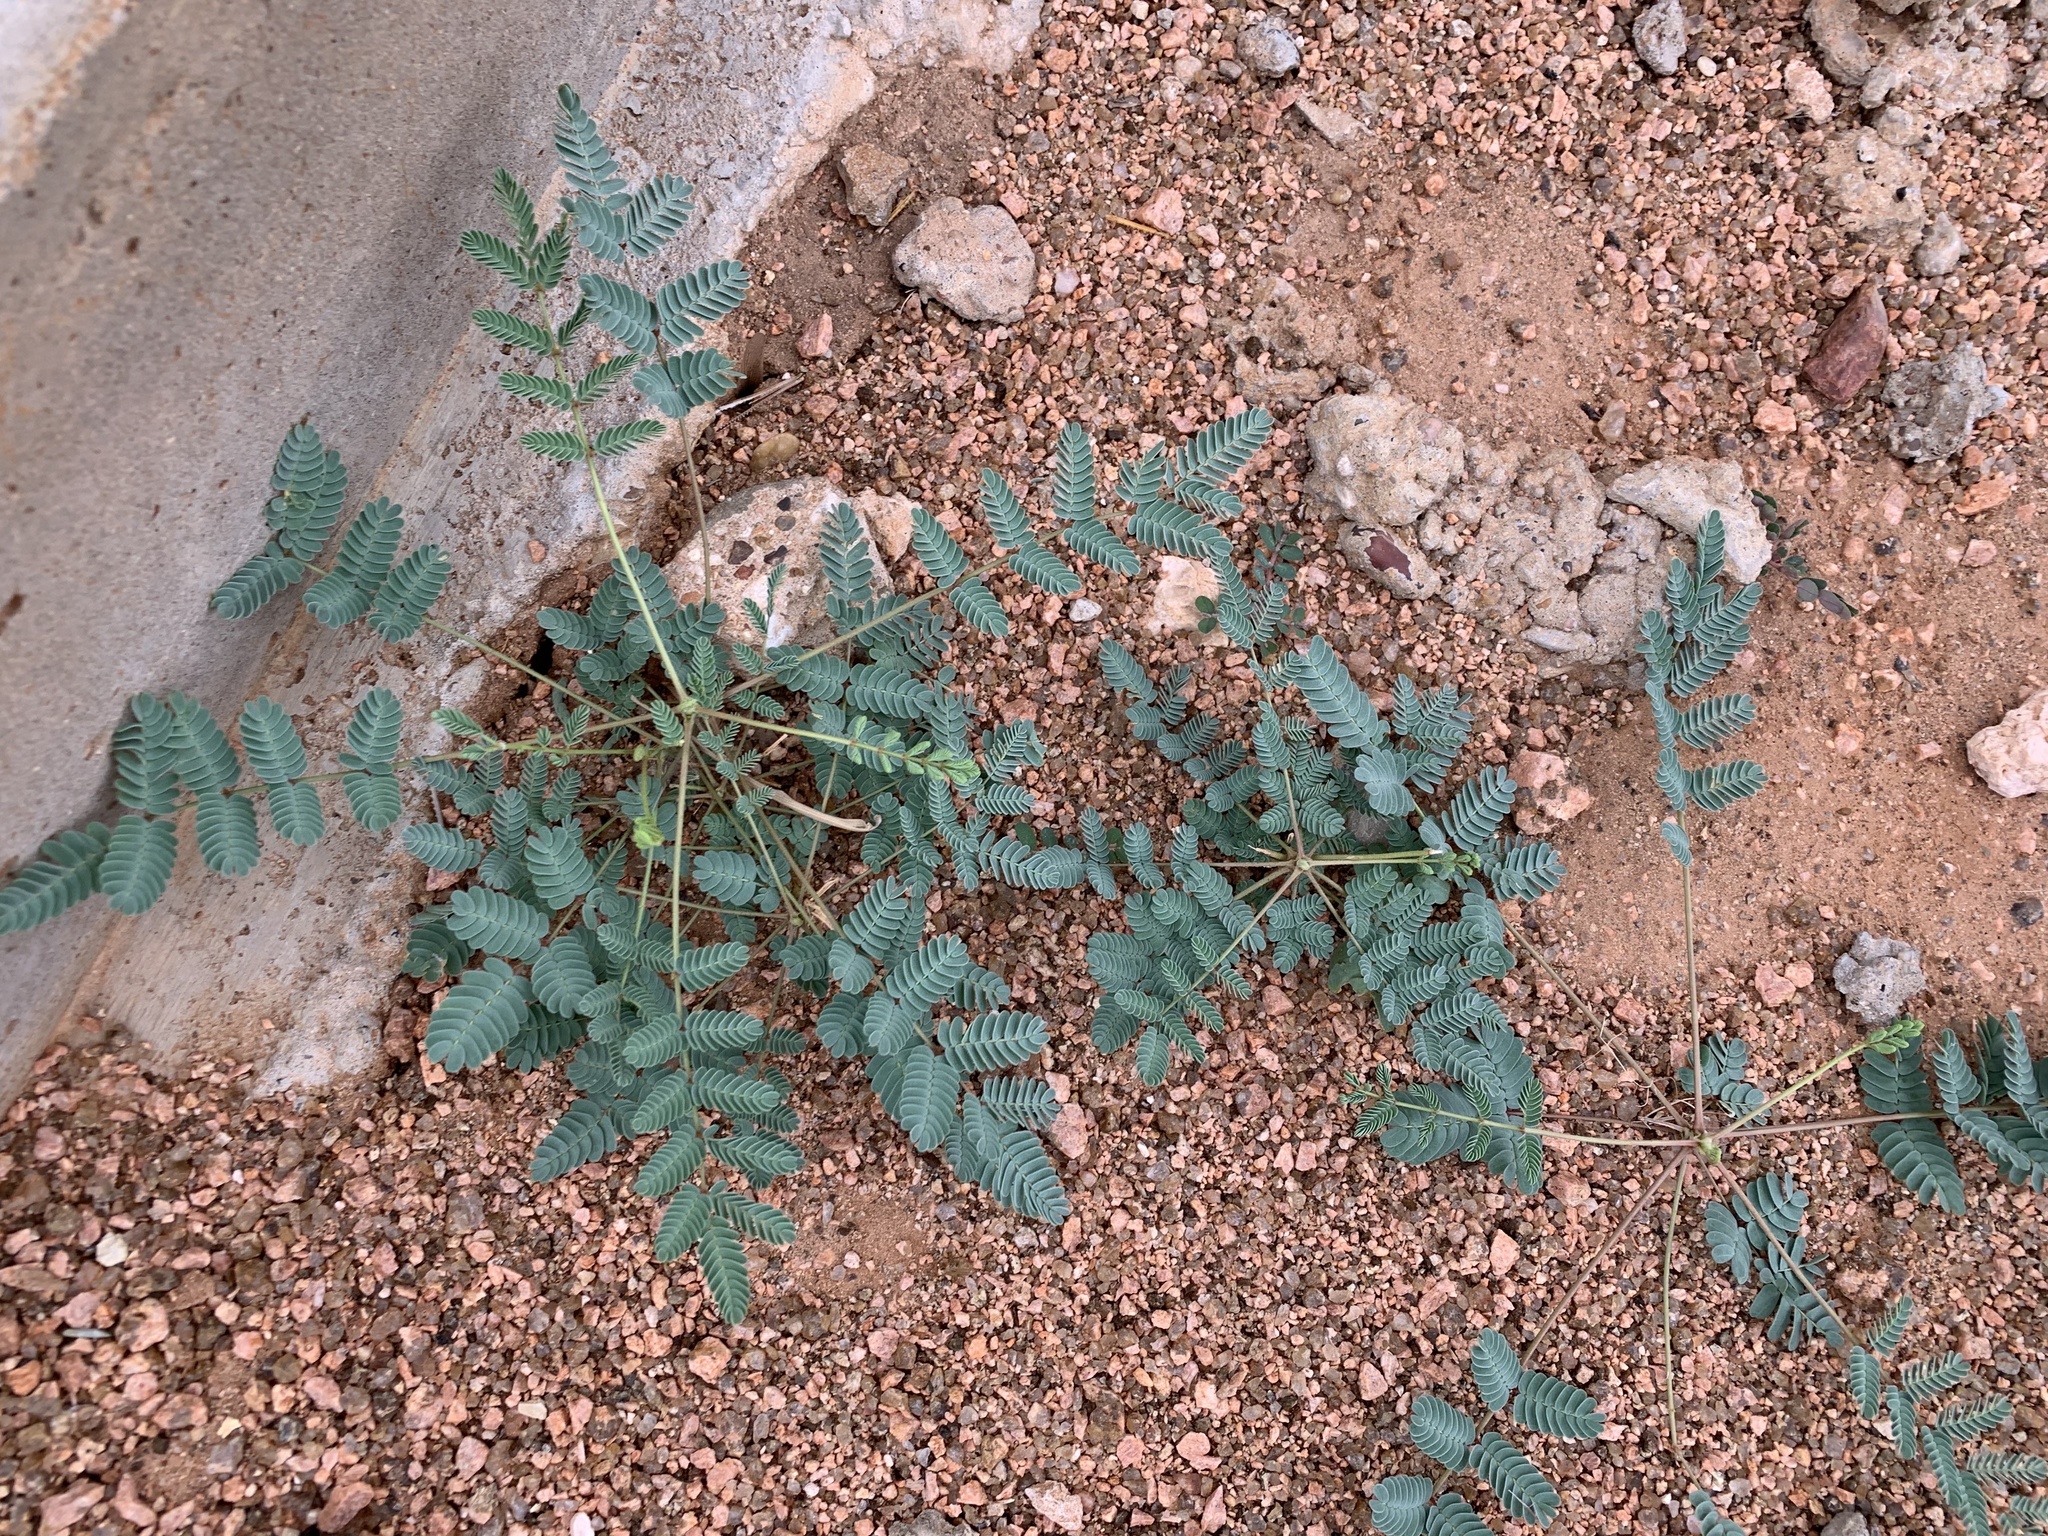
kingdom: Plantae
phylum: Tracheophyta
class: Magnoliopsida
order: Fabales
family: Fabaceae
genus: Hoffmannseggia
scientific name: Hoffmannseggia glauca
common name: Pignut
